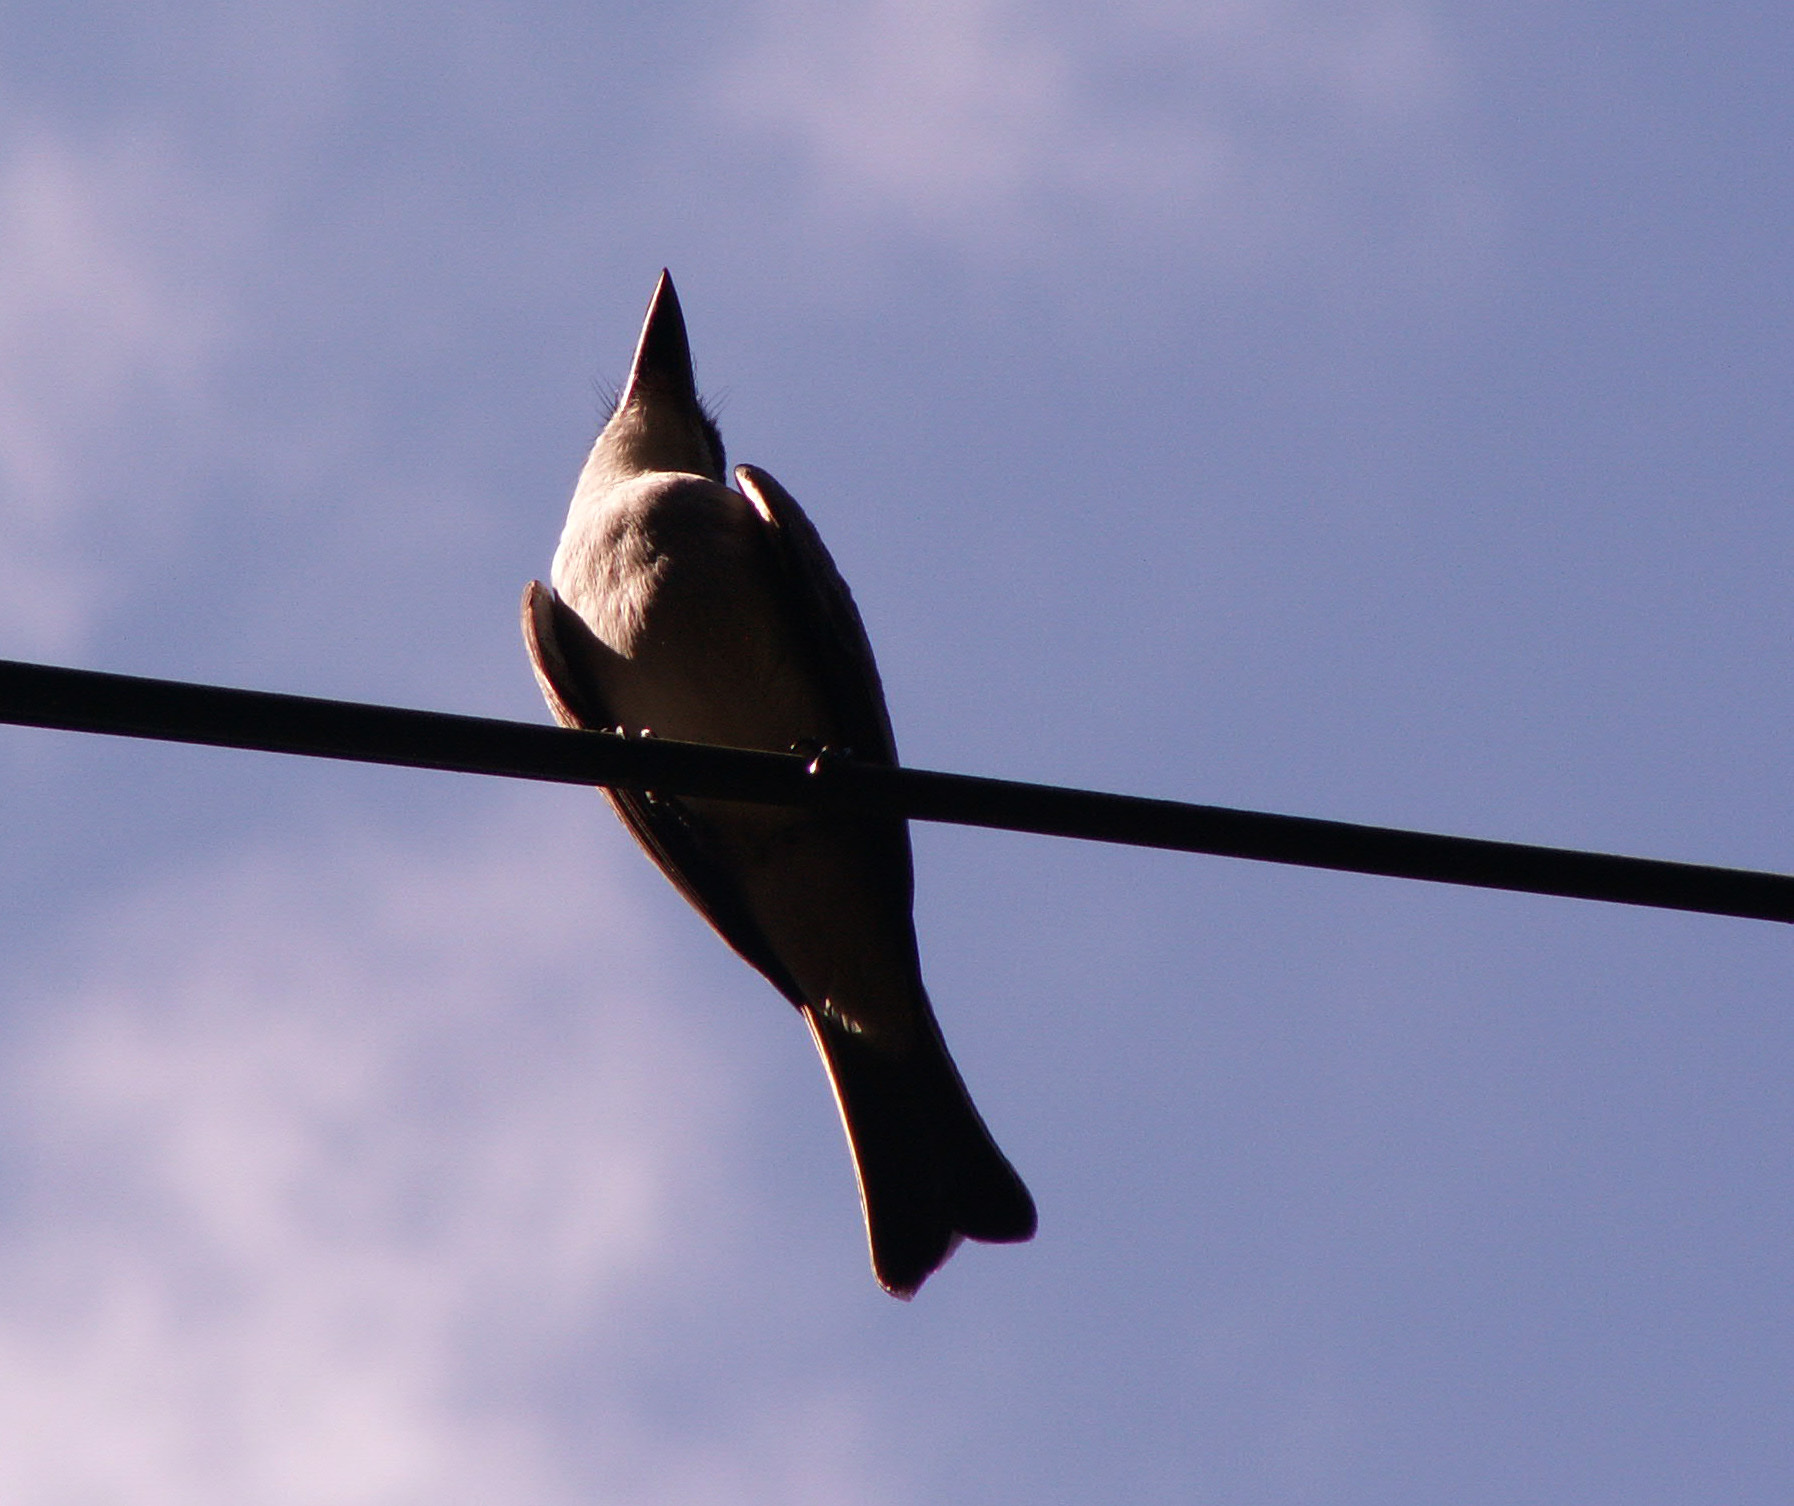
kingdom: Animalia
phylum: Chordata
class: Aves
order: Passeriformes
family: Tyrannidae
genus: Tyrannus
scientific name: Tyrannus dominicensis
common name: Gray kingbird
